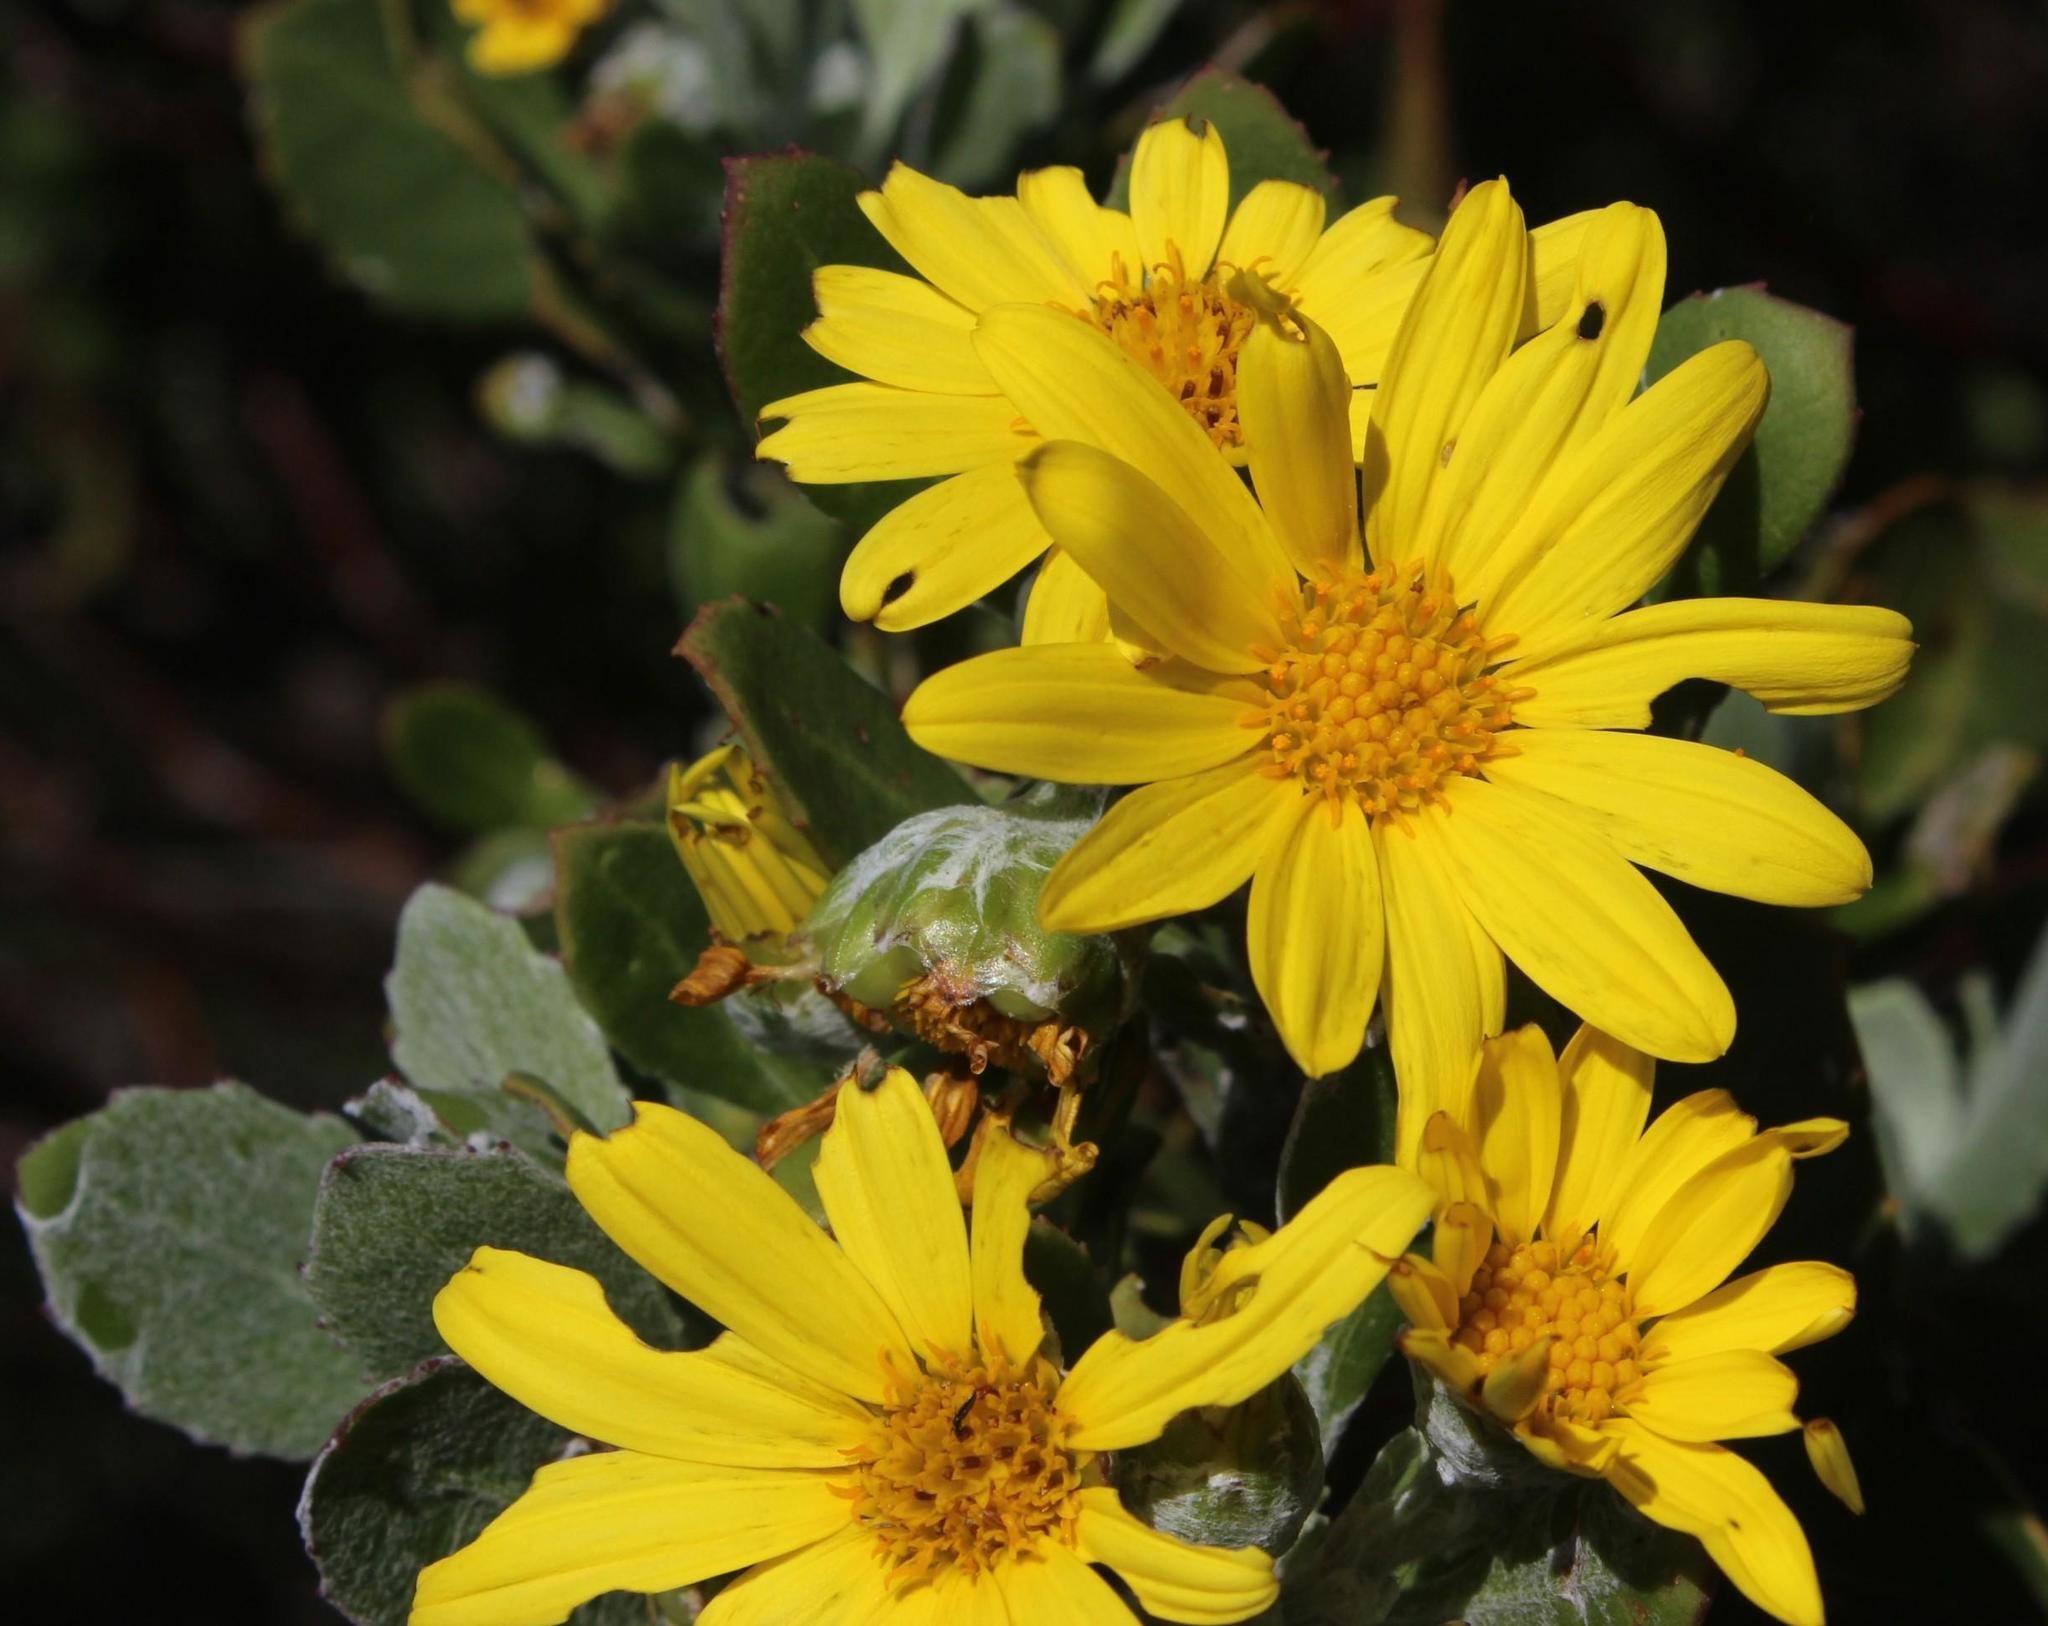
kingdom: Plantae
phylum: Tracheophyta
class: Magnoliopsida
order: Asterales
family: Asteraceae
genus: Osteospermum
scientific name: Osteospermum moniliferum
